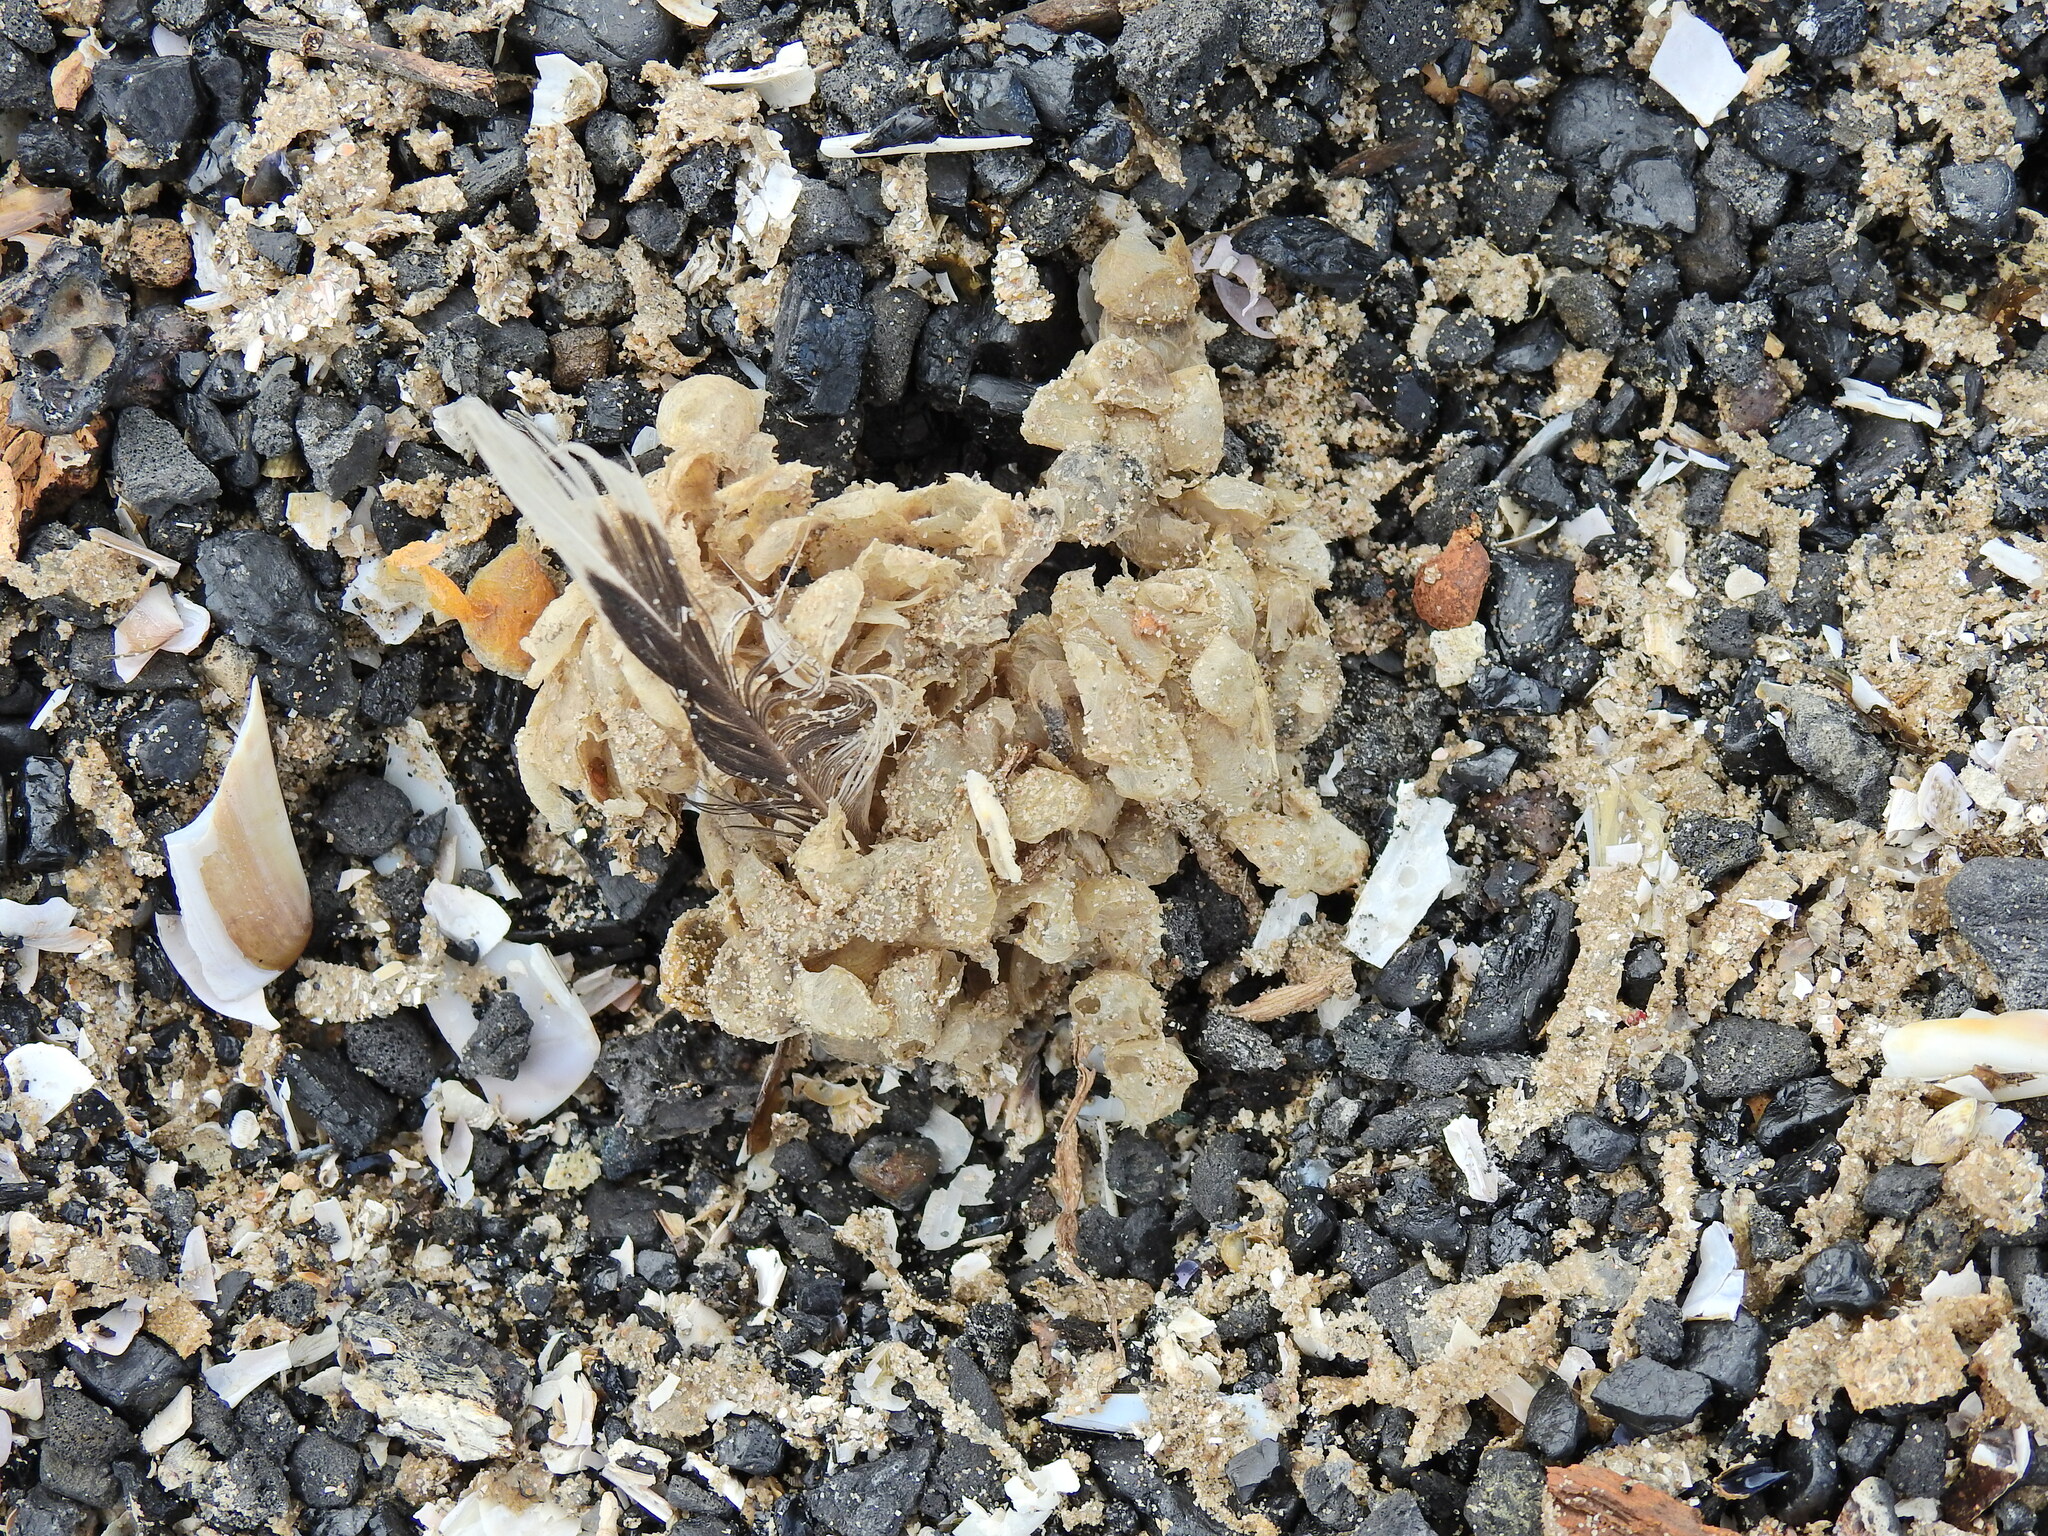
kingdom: Animalia
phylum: Mollusca
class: Gastropoda
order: Neogastropoda
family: Buccinidae
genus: Buccinum
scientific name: Buccinum undatum
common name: Common whelk
